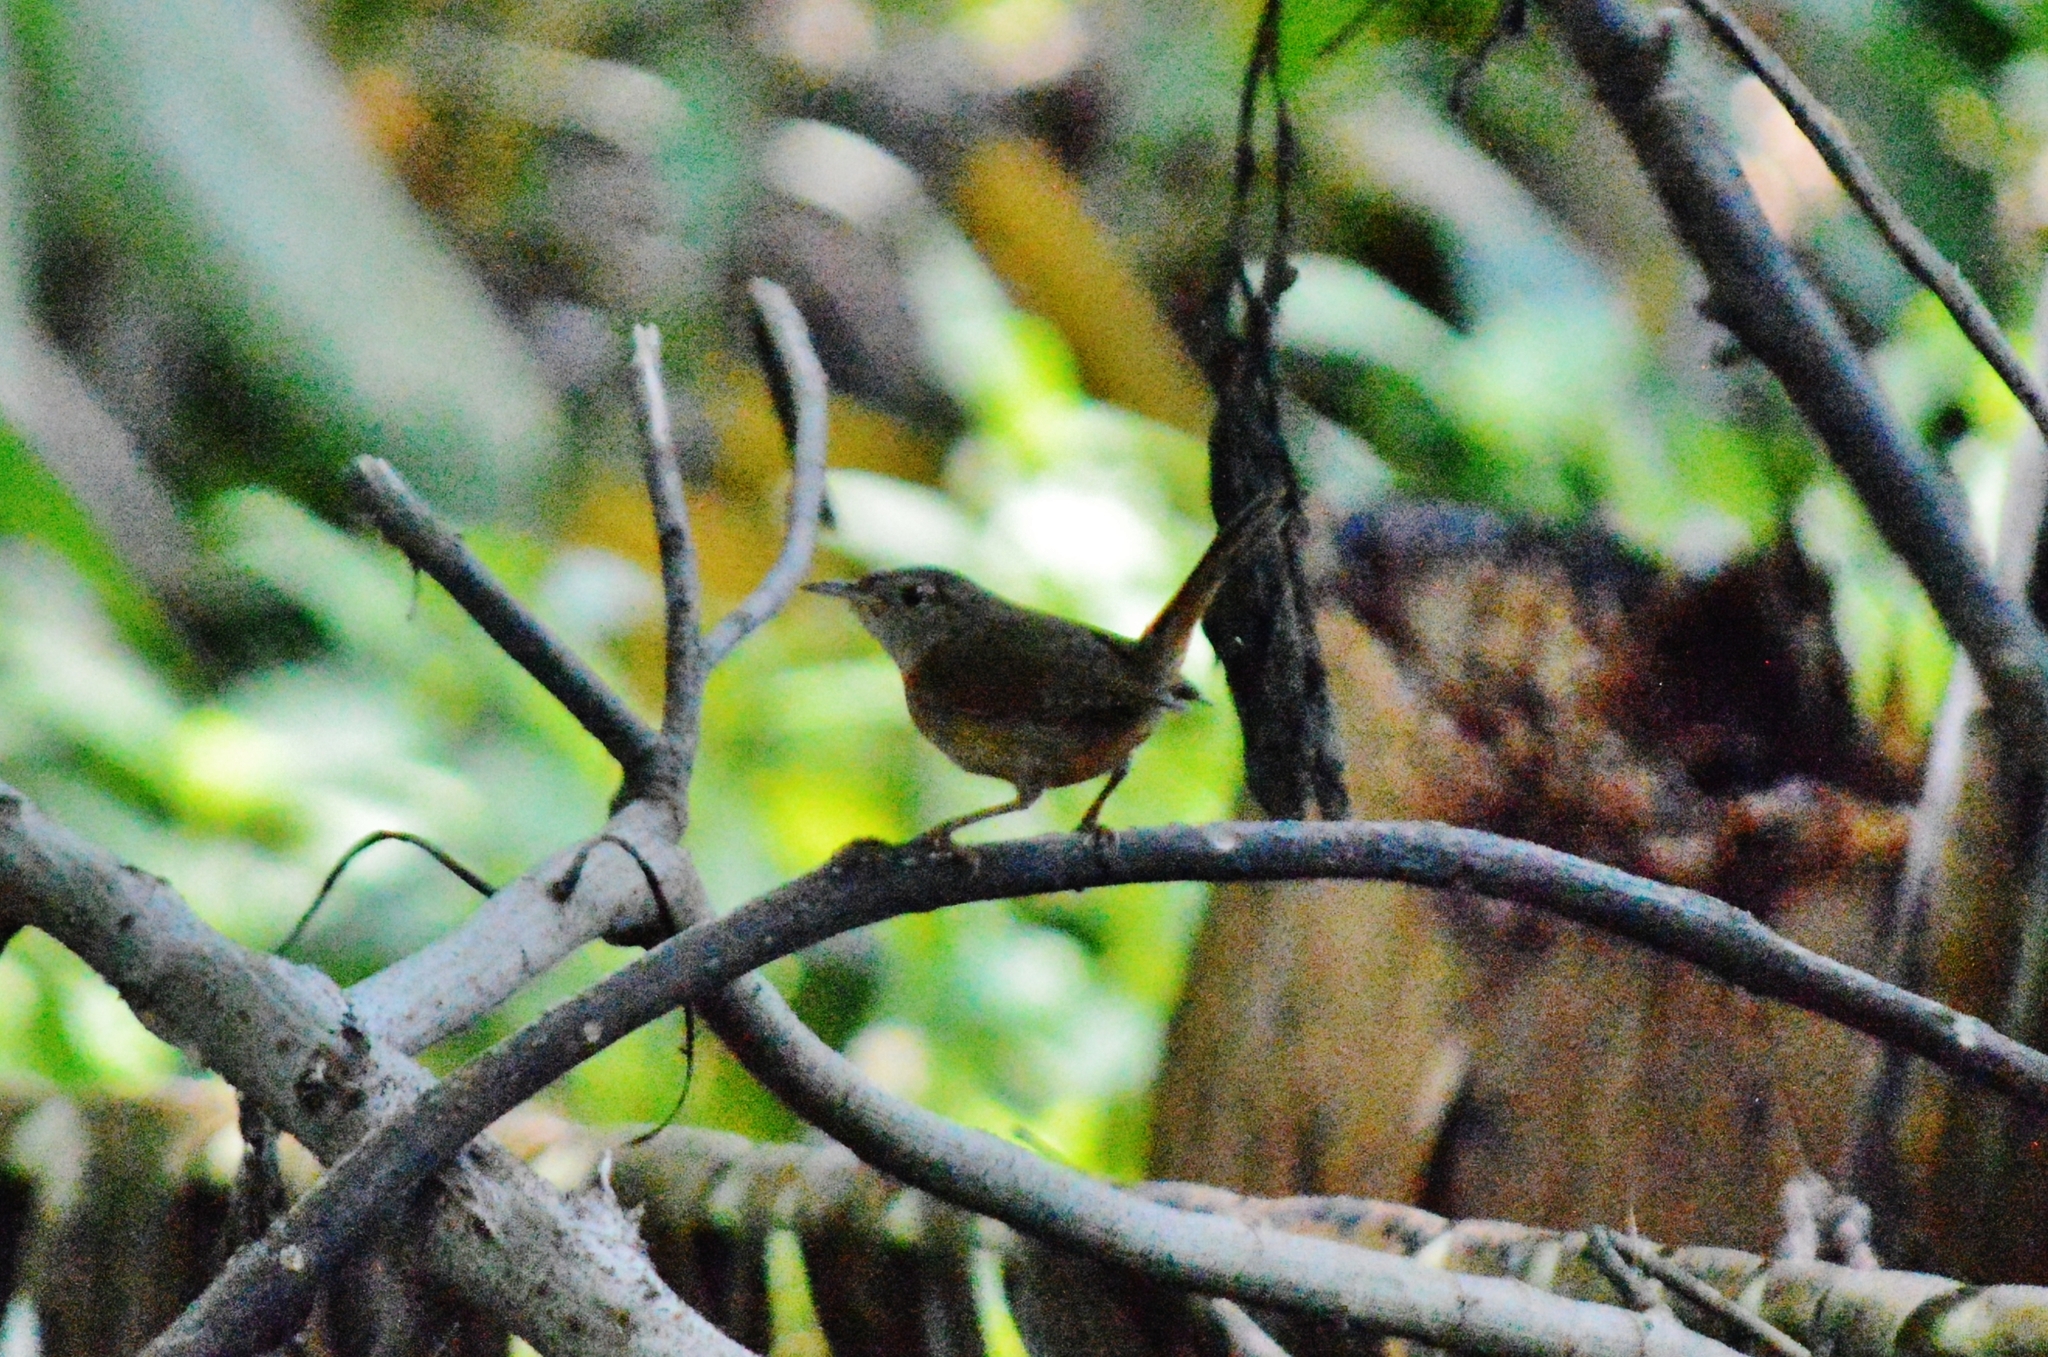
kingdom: Animalia
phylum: Chordata
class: Aves
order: Passeriformes
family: Troglodytidae
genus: Troglodytes
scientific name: Troglodytes aedon
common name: House wren
